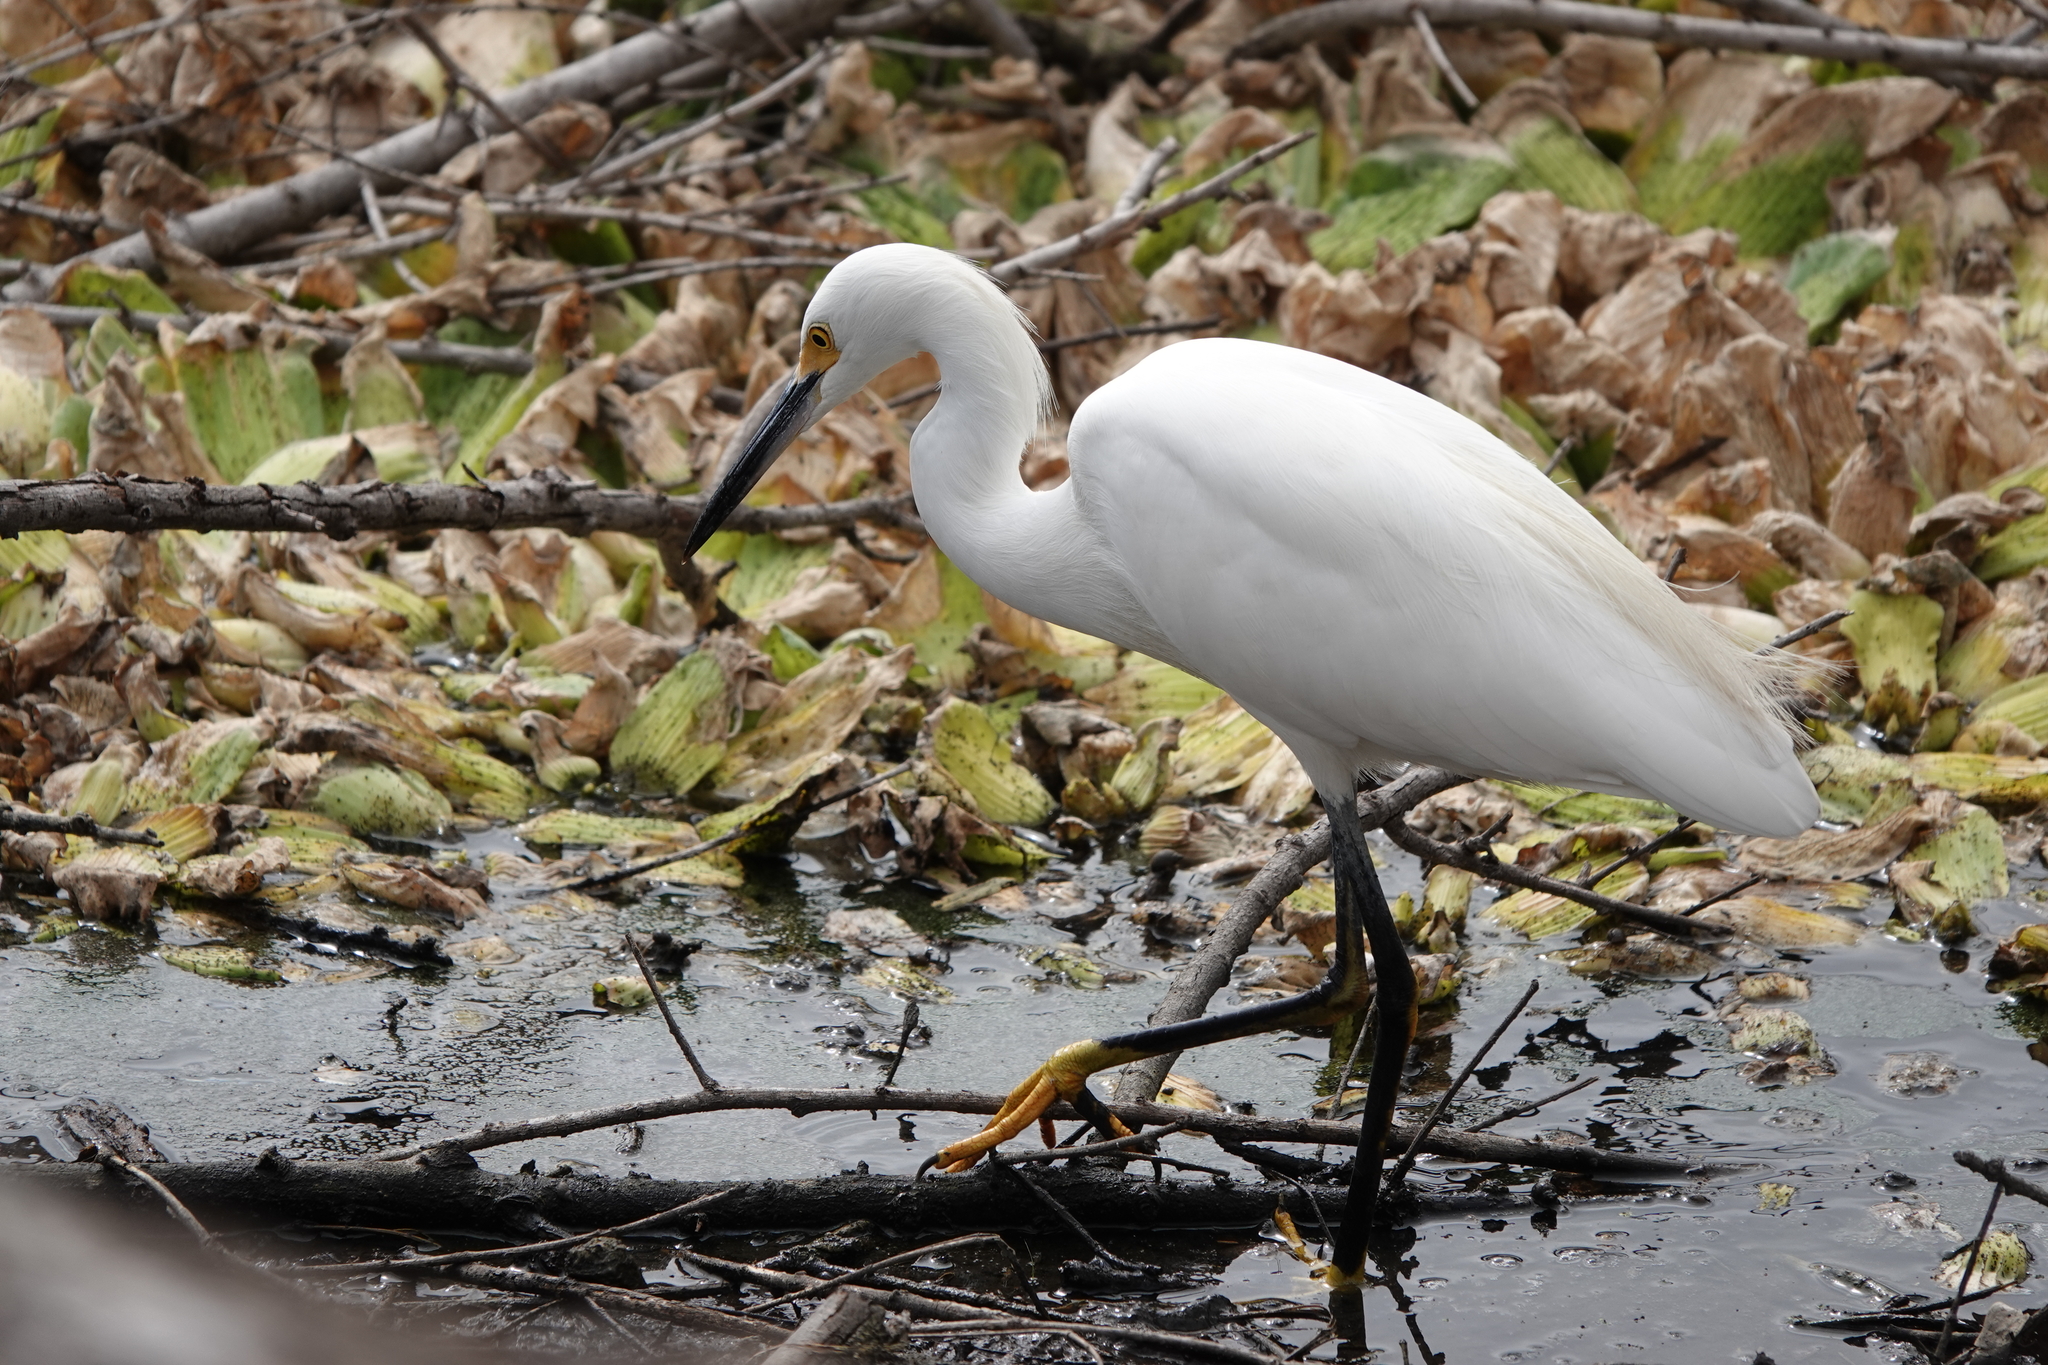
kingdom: Animalia
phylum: Chordata
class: Aves
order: Pelecaniformes
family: Ardeidae
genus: Egretta
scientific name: Egretta thula
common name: Snowy egret
